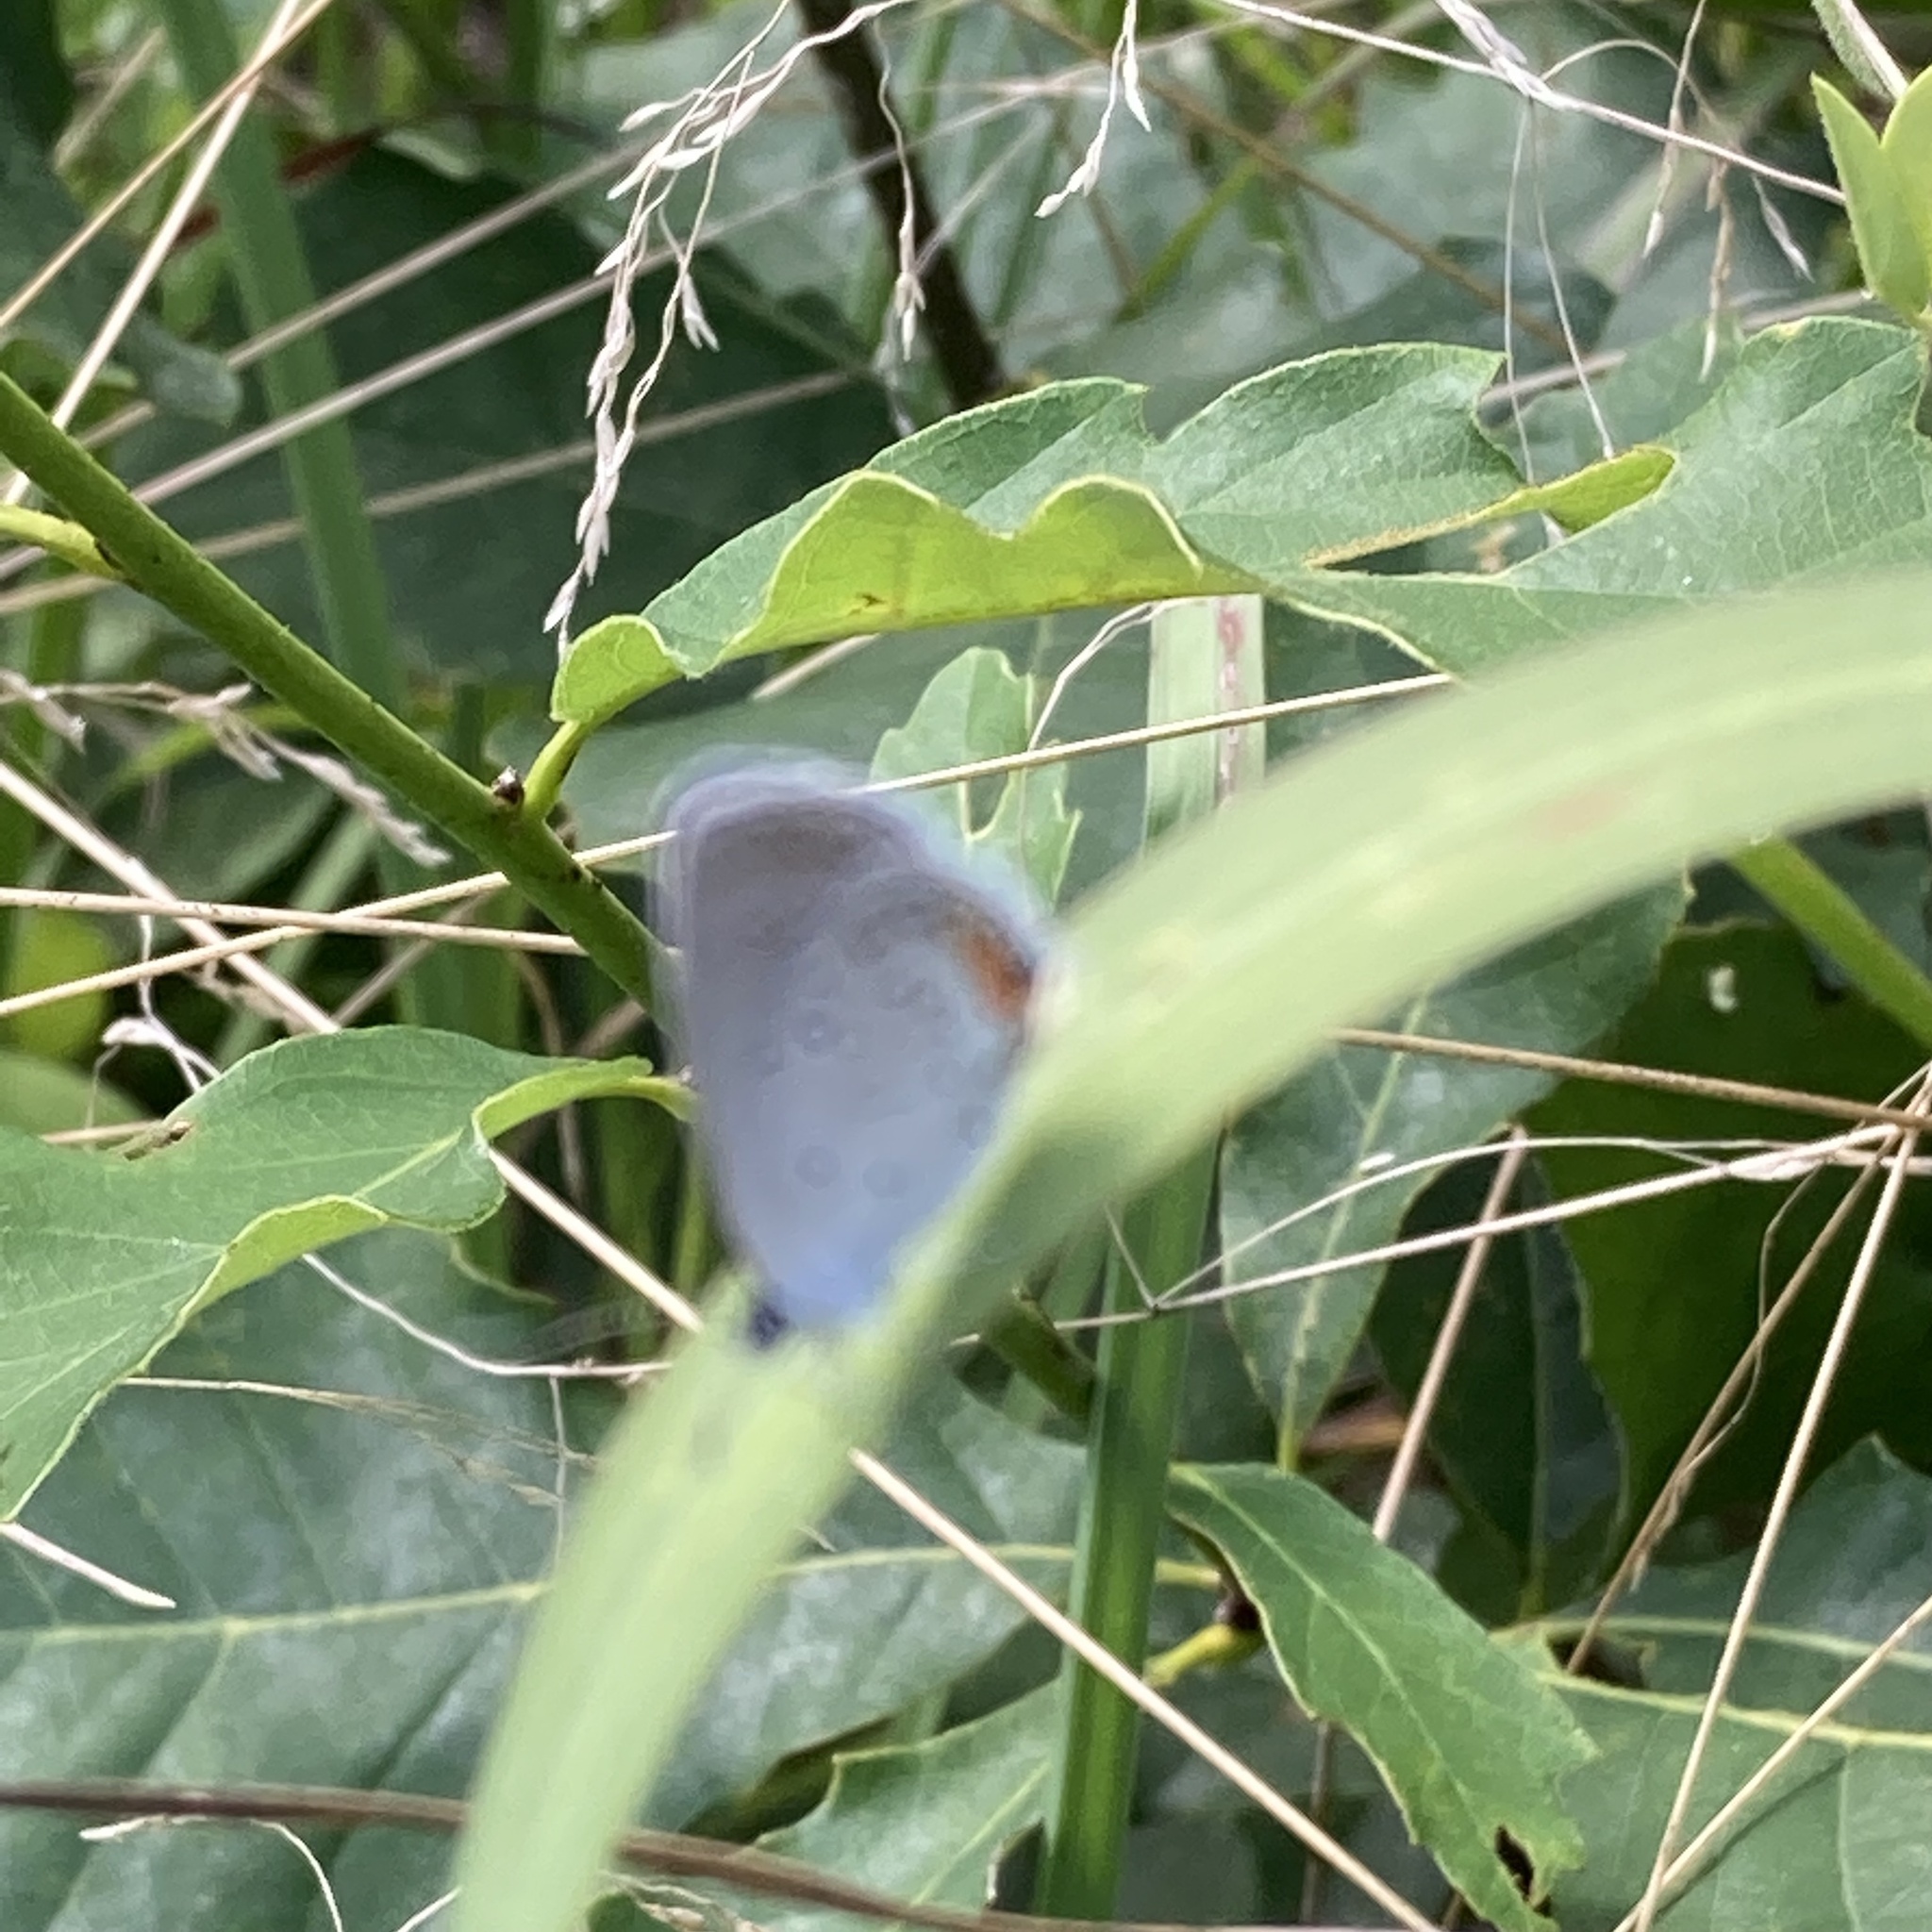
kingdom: Animalia
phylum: Arthropoda
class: Insecta
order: Lepidoptera
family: Lycaenidae
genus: Elkalyce
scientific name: Elkalyce comyntas
